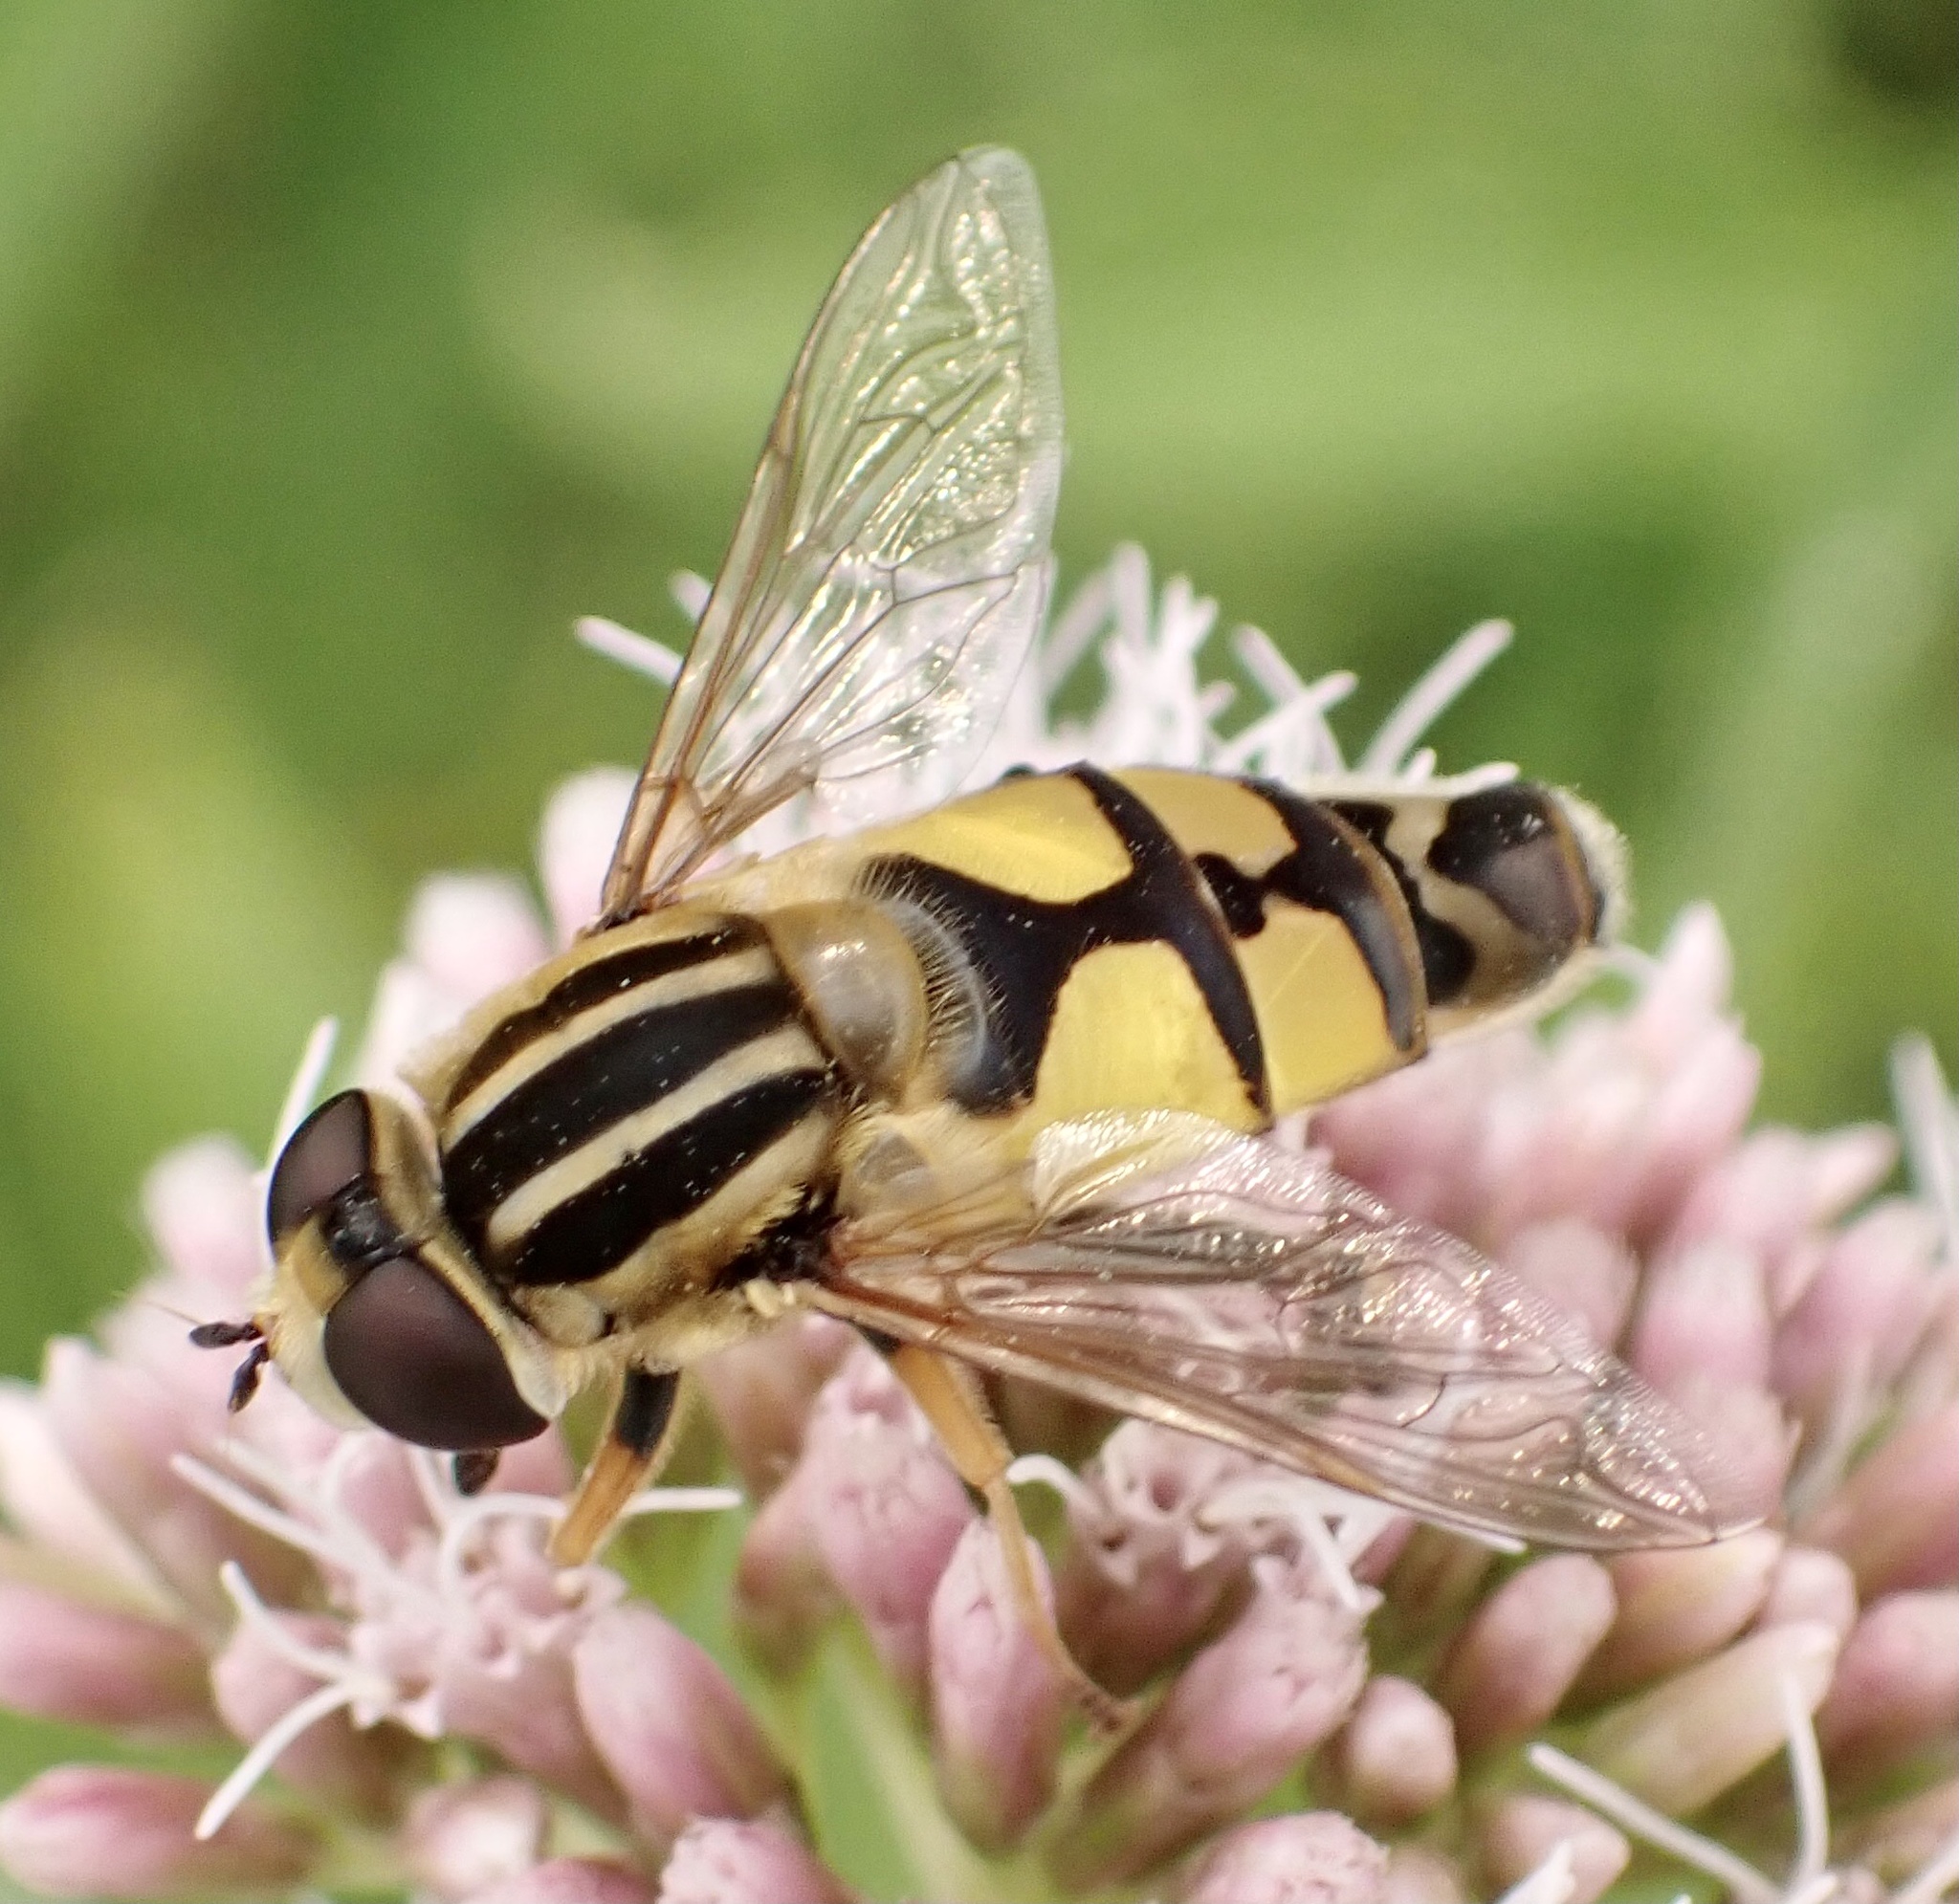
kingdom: Animalia
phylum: Arthropoda
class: Insecta
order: Diptera
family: Syrphidae
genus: Helophilus
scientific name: Helophilus trivittatus
